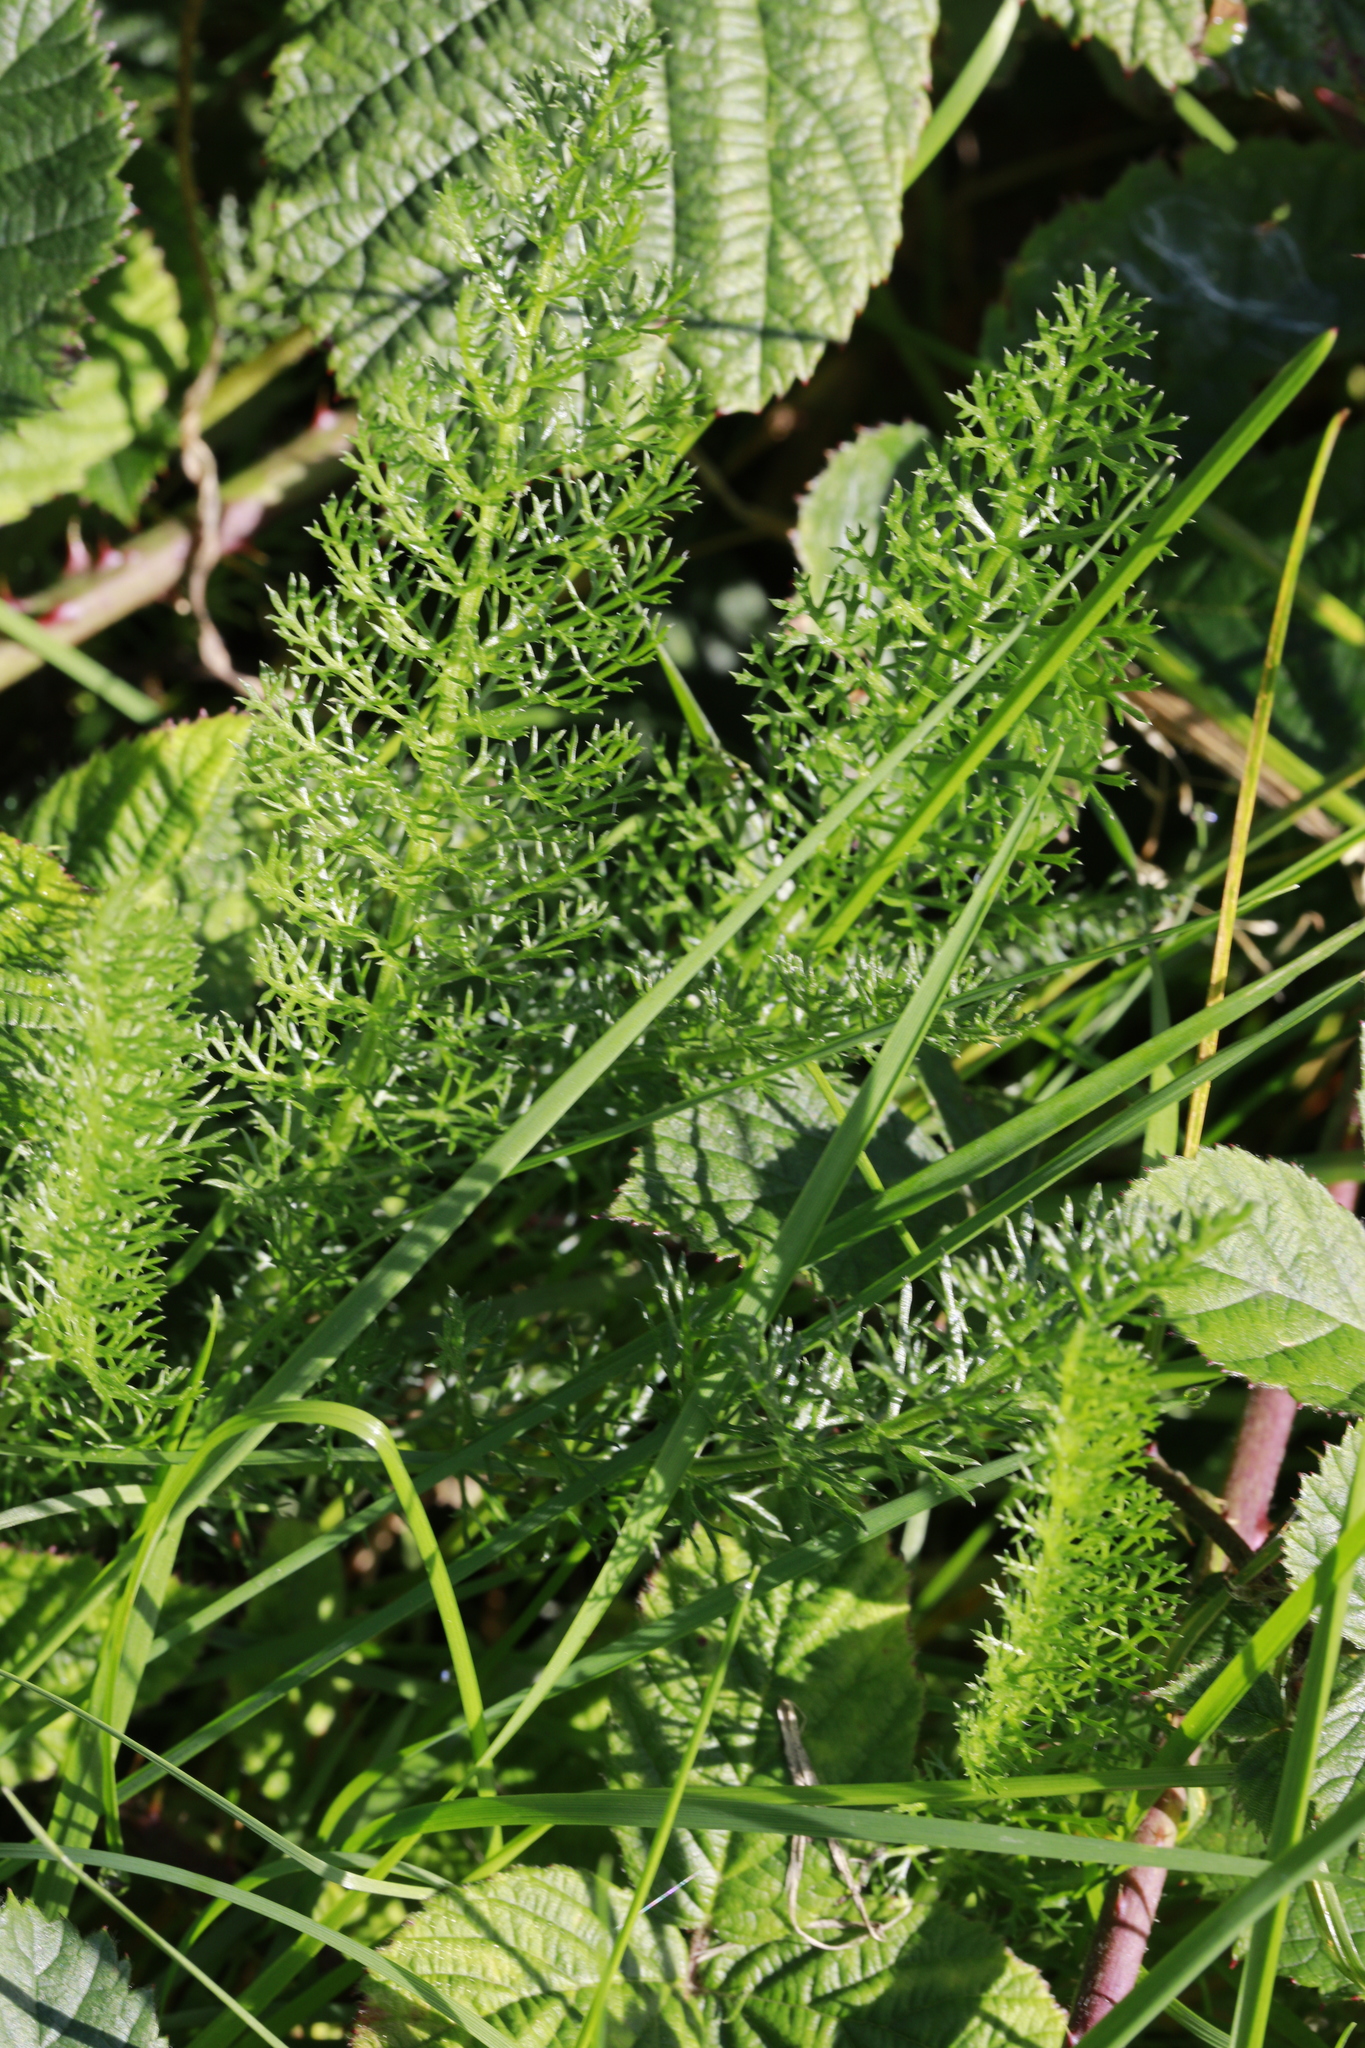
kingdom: Plantae
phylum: Tracheophyta
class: Magnoliopsida
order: Asterales
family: Asteraceae
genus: Achillea
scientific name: Achillea millefolium
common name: Yarrow
